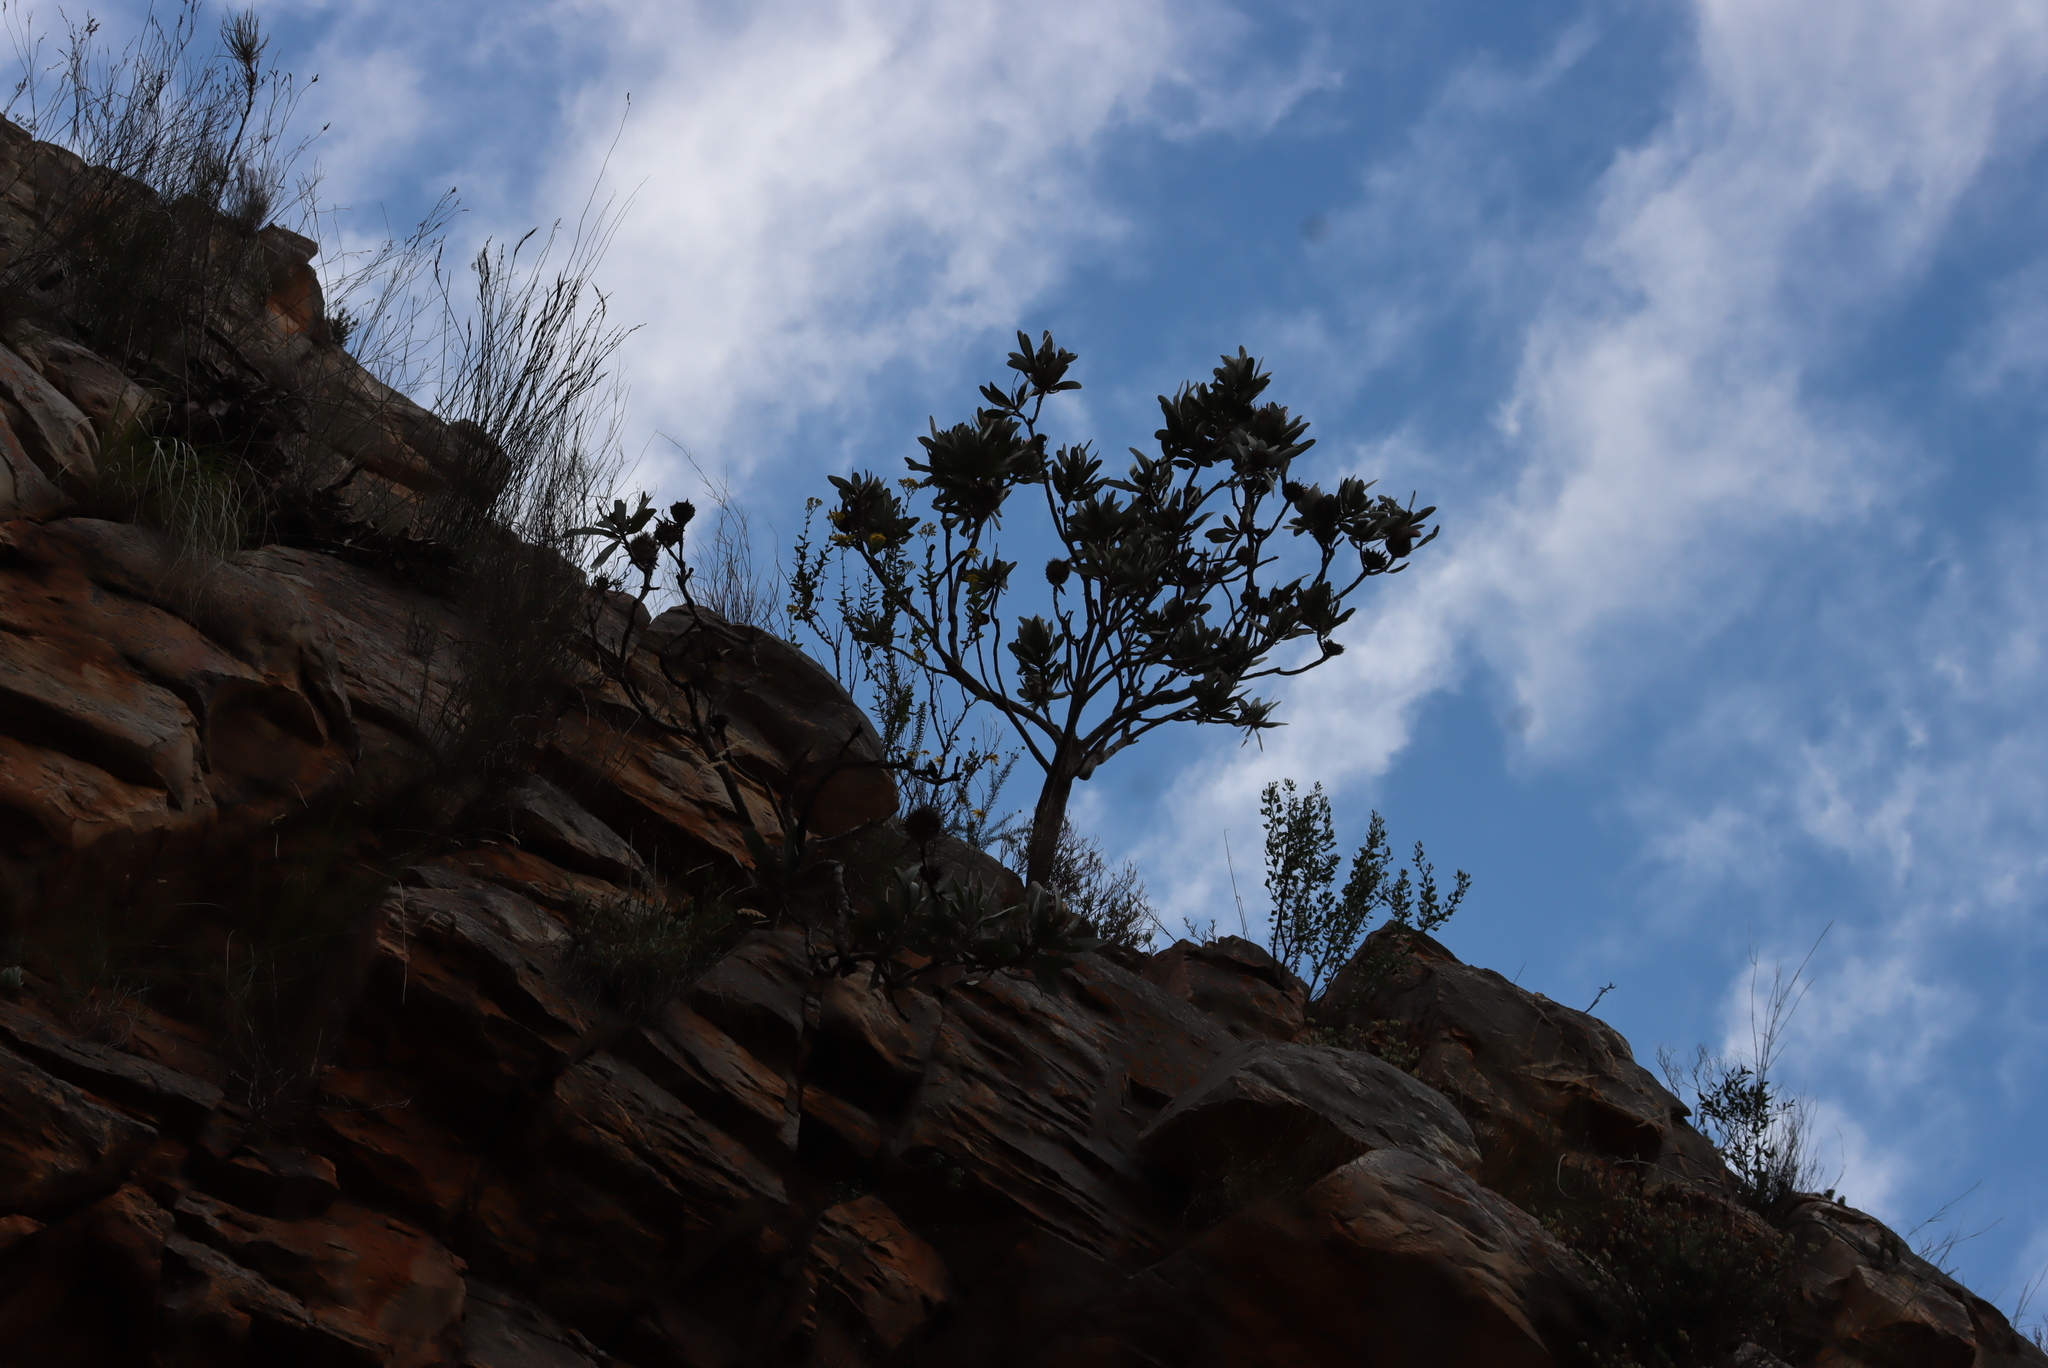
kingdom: Plantae
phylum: Tracheophyta
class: Magnoliopsida
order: Proteales
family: Proteaceae
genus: Protea
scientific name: Protea lorifolia
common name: Strap-leaved protea
